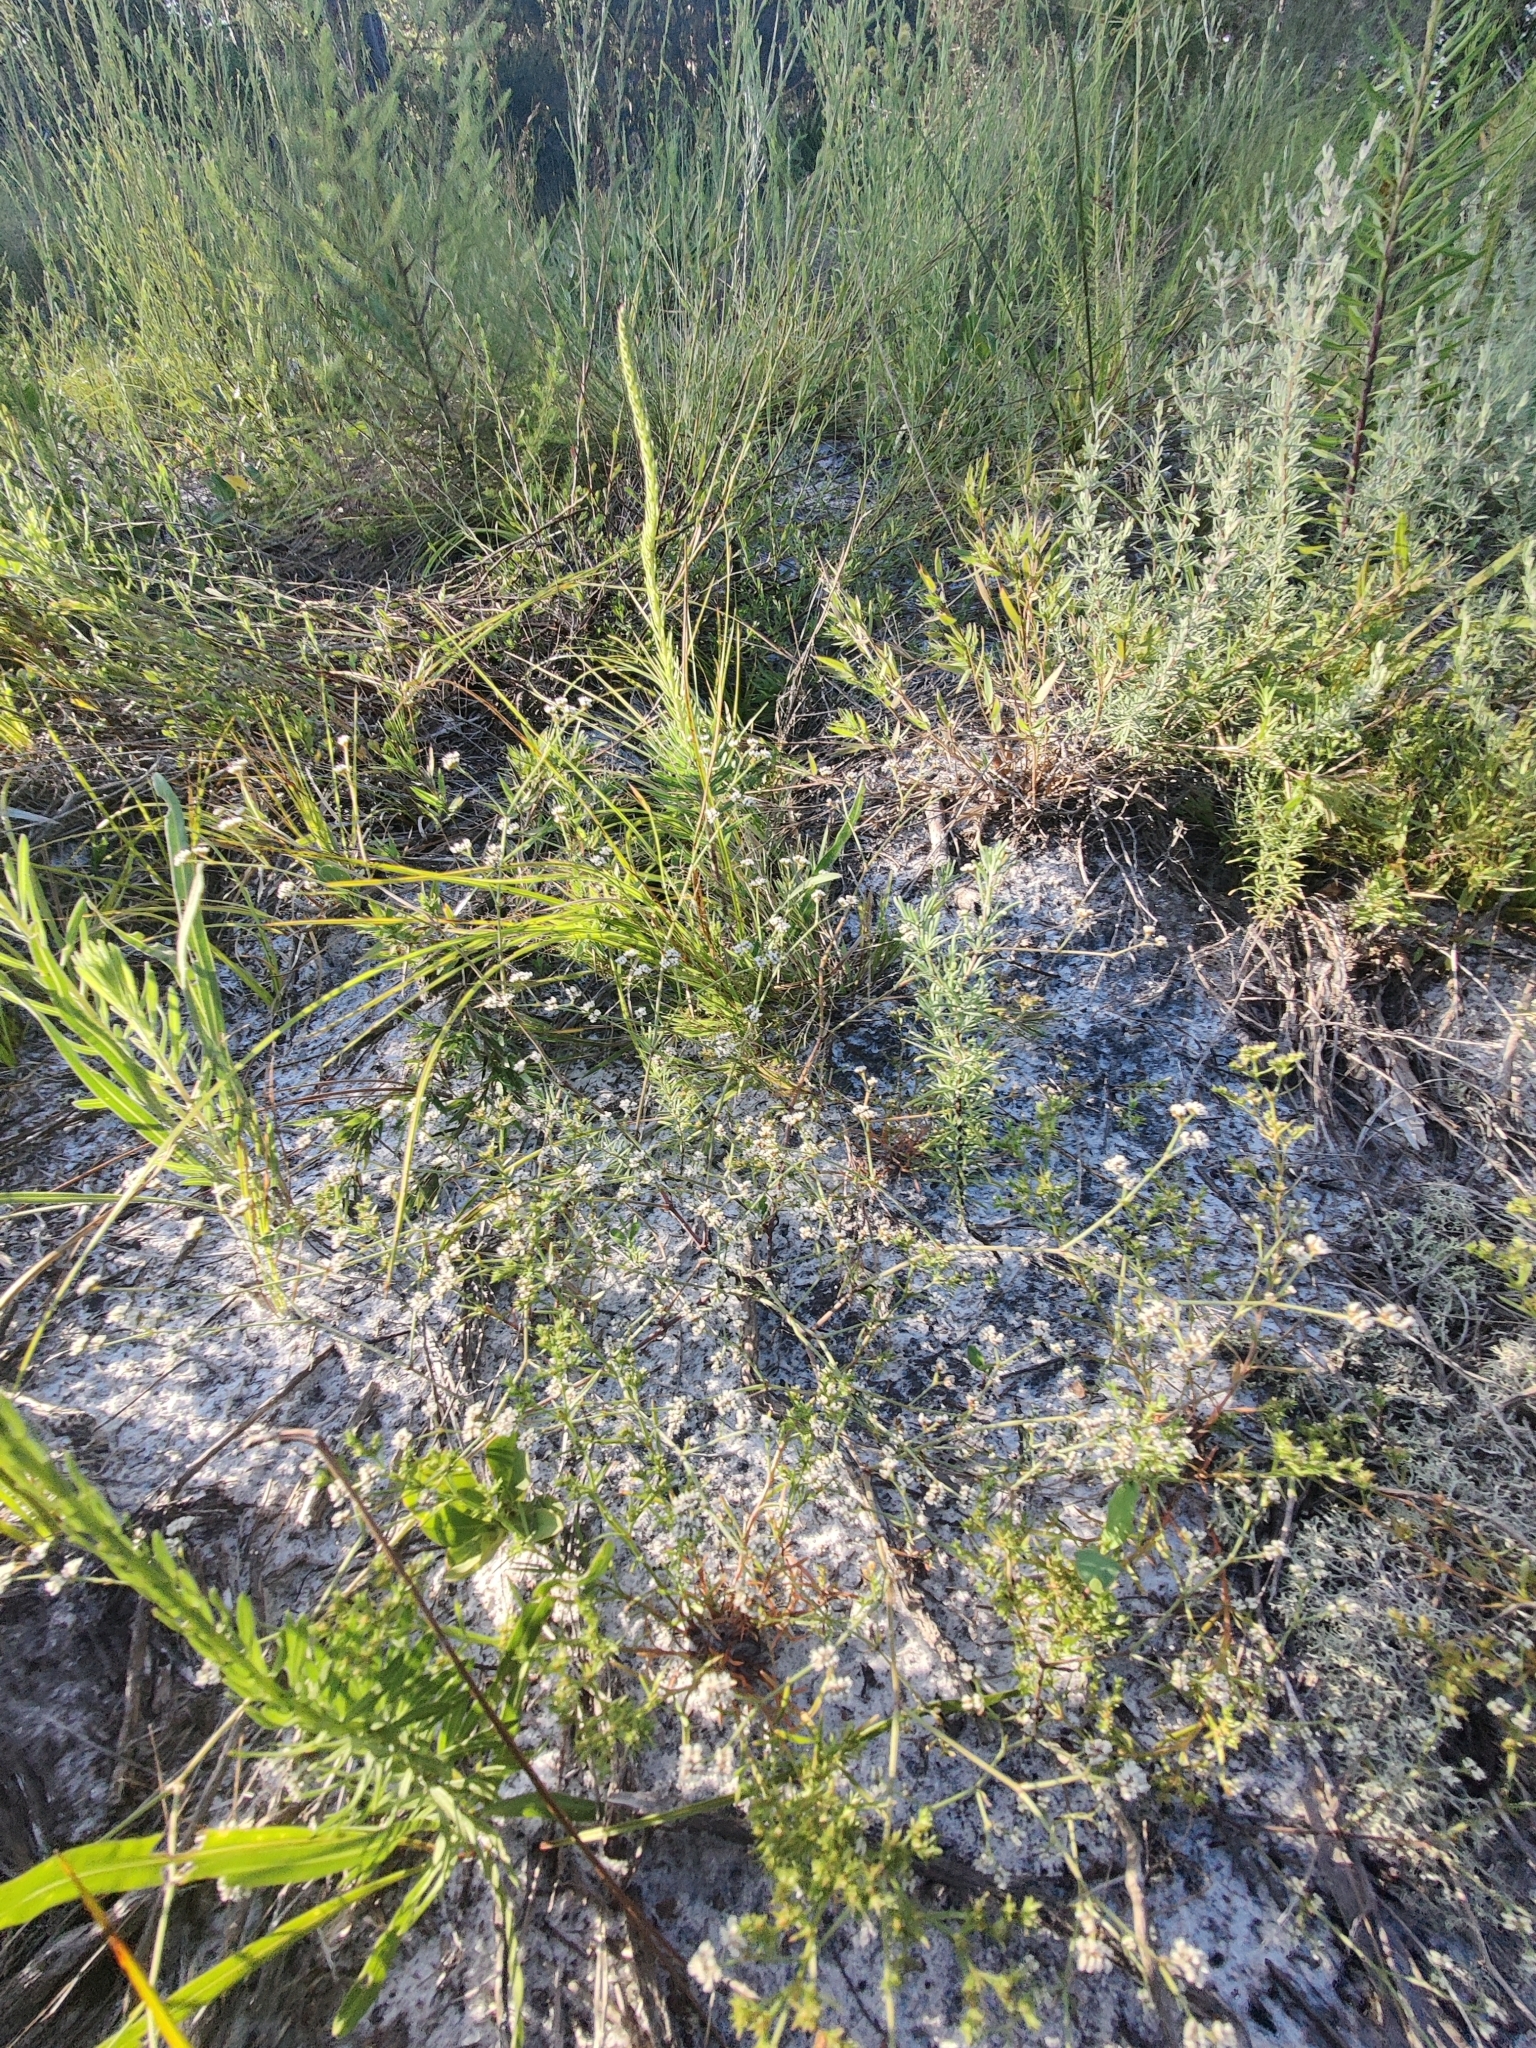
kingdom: Plantae
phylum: Tracheophyta
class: Magnoliopsida
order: Caryophyllales
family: Caryophyllaceae
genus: Paronychia
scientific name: Paronychia patula
